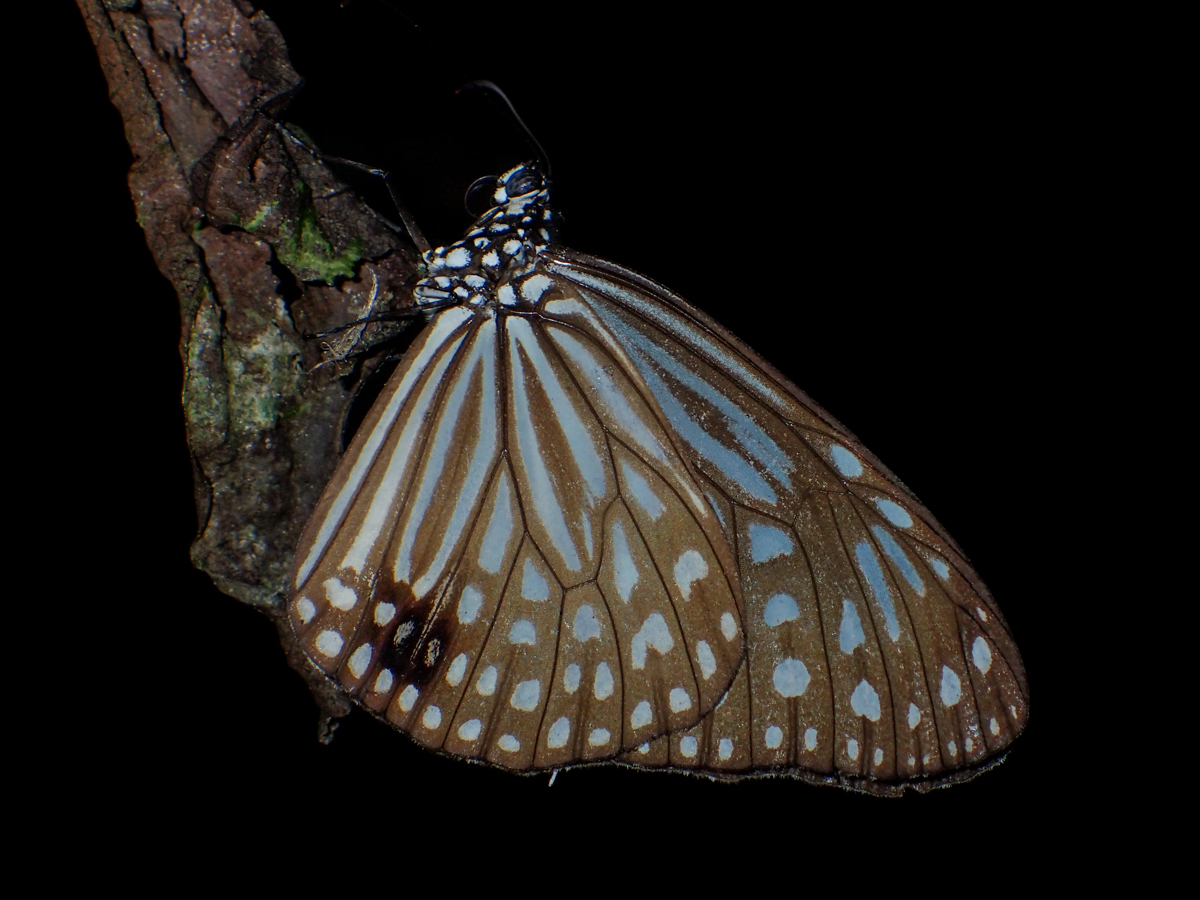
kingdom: Animalia
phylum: Arthropoda
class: Insecta
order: Lepidoptera
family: Nymphalidae
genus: Parantica
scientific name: Parantica agleoides
